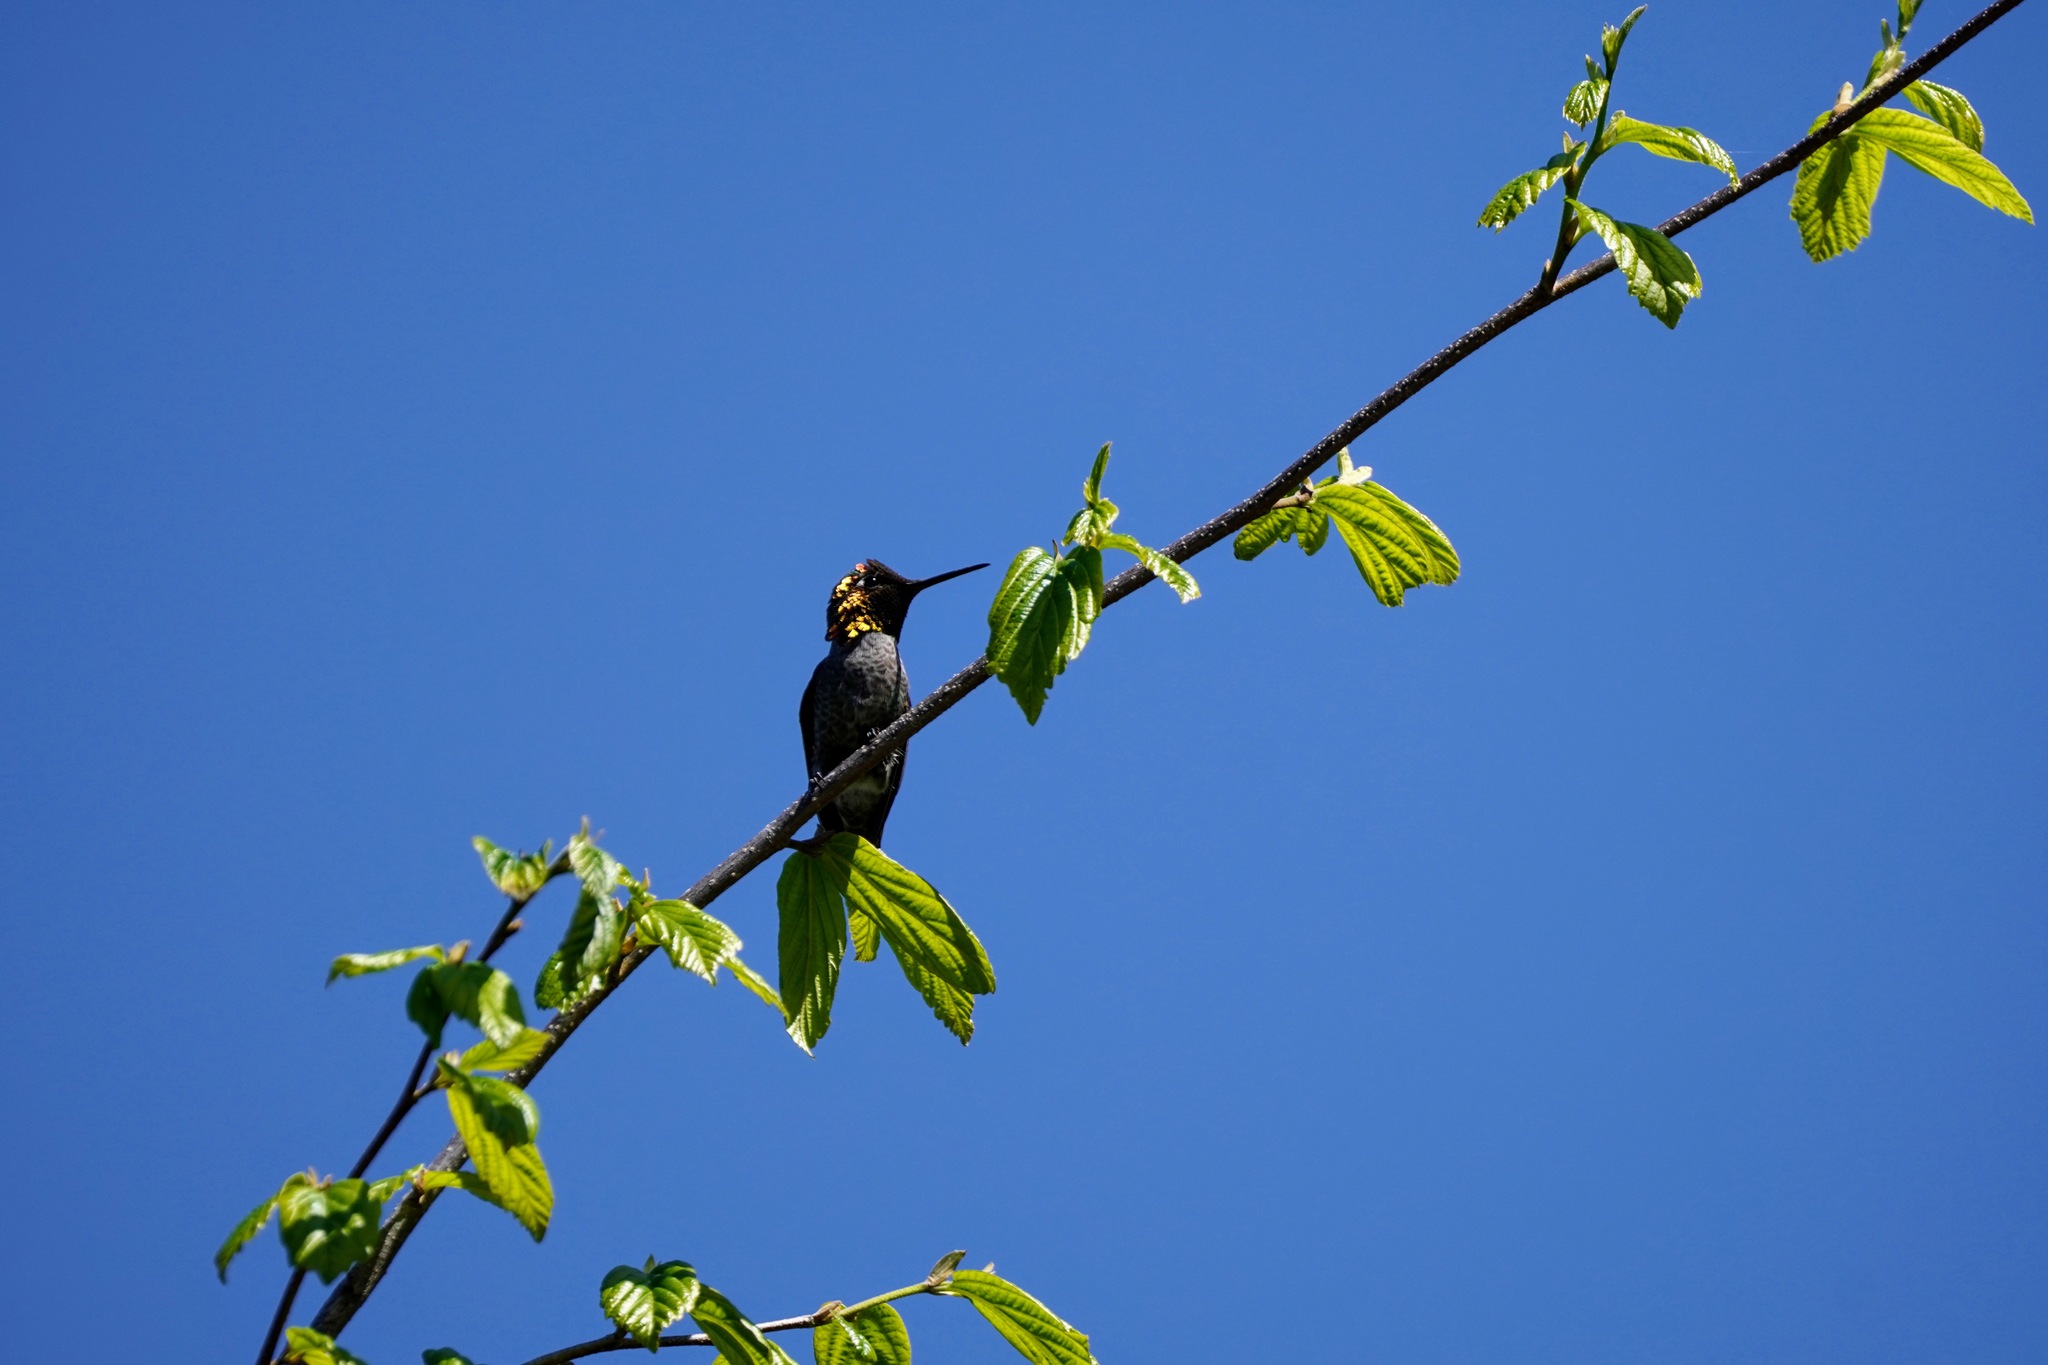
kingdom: Animalia
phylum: Chordata
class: Aves
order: Apodiformes
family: Trochilidae
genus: Calypte
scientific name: Calypte anna
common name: Anna's hummingbird
